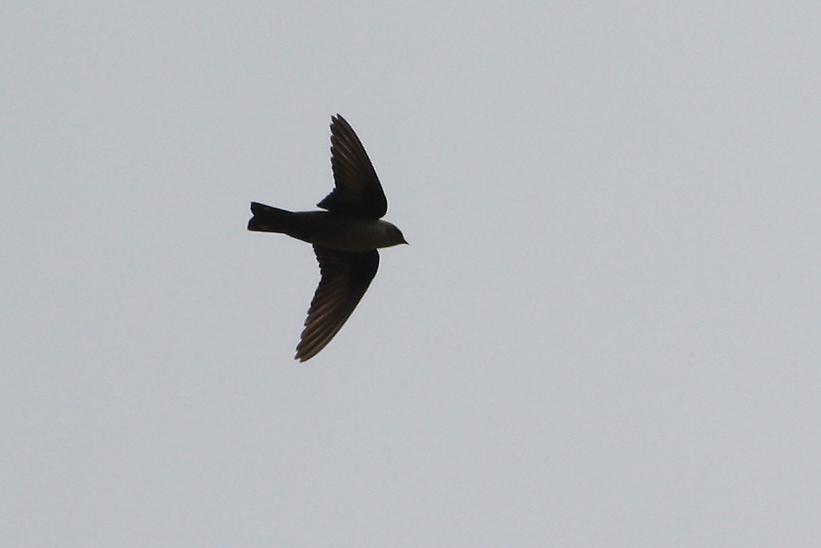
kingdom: Animalia
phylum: Chordata
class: Aves
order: Passeriformes
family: Hirundinidae
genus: Ptyonoprogne
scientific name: Ptyonoprogne rupestris
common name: Eurasian crag martin
